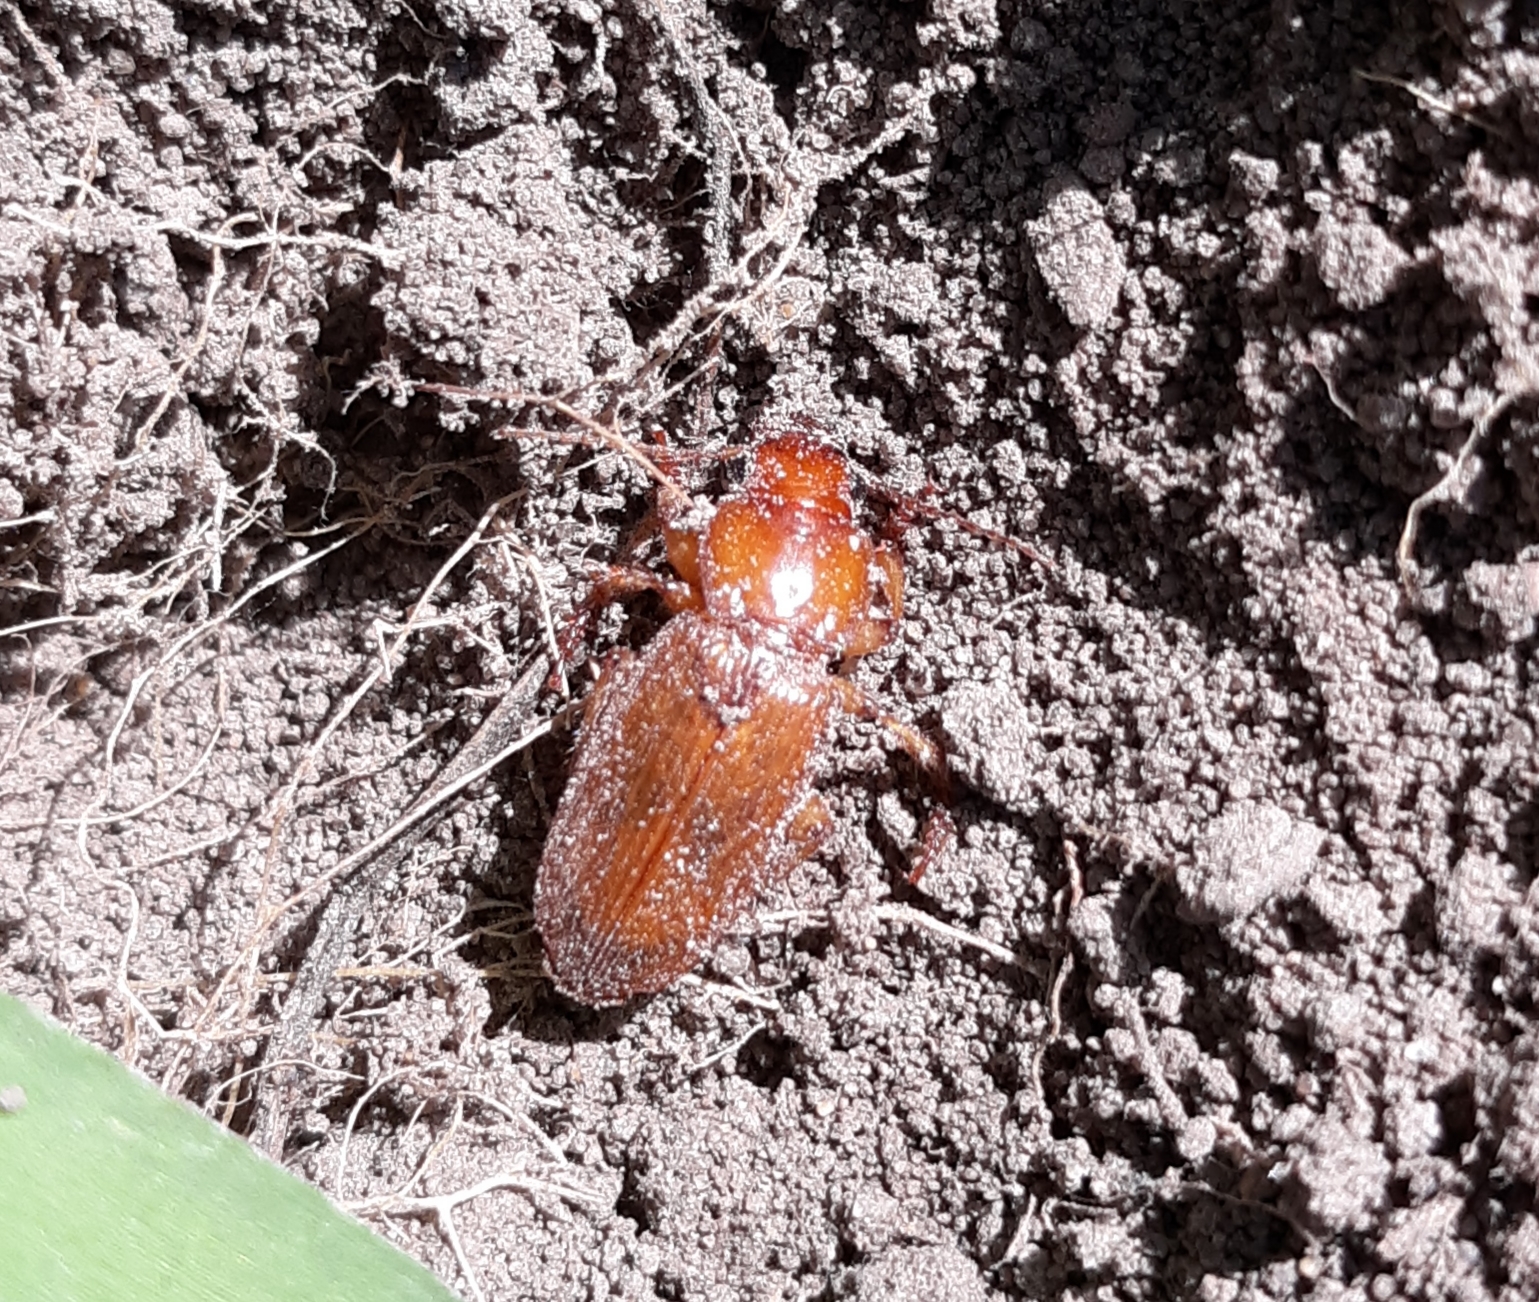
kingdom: Animalia
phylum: Arthropoda
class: Insecta
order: Coleoptera
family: Carabidae
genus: Harpalus
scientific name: Harpalus erraticus
